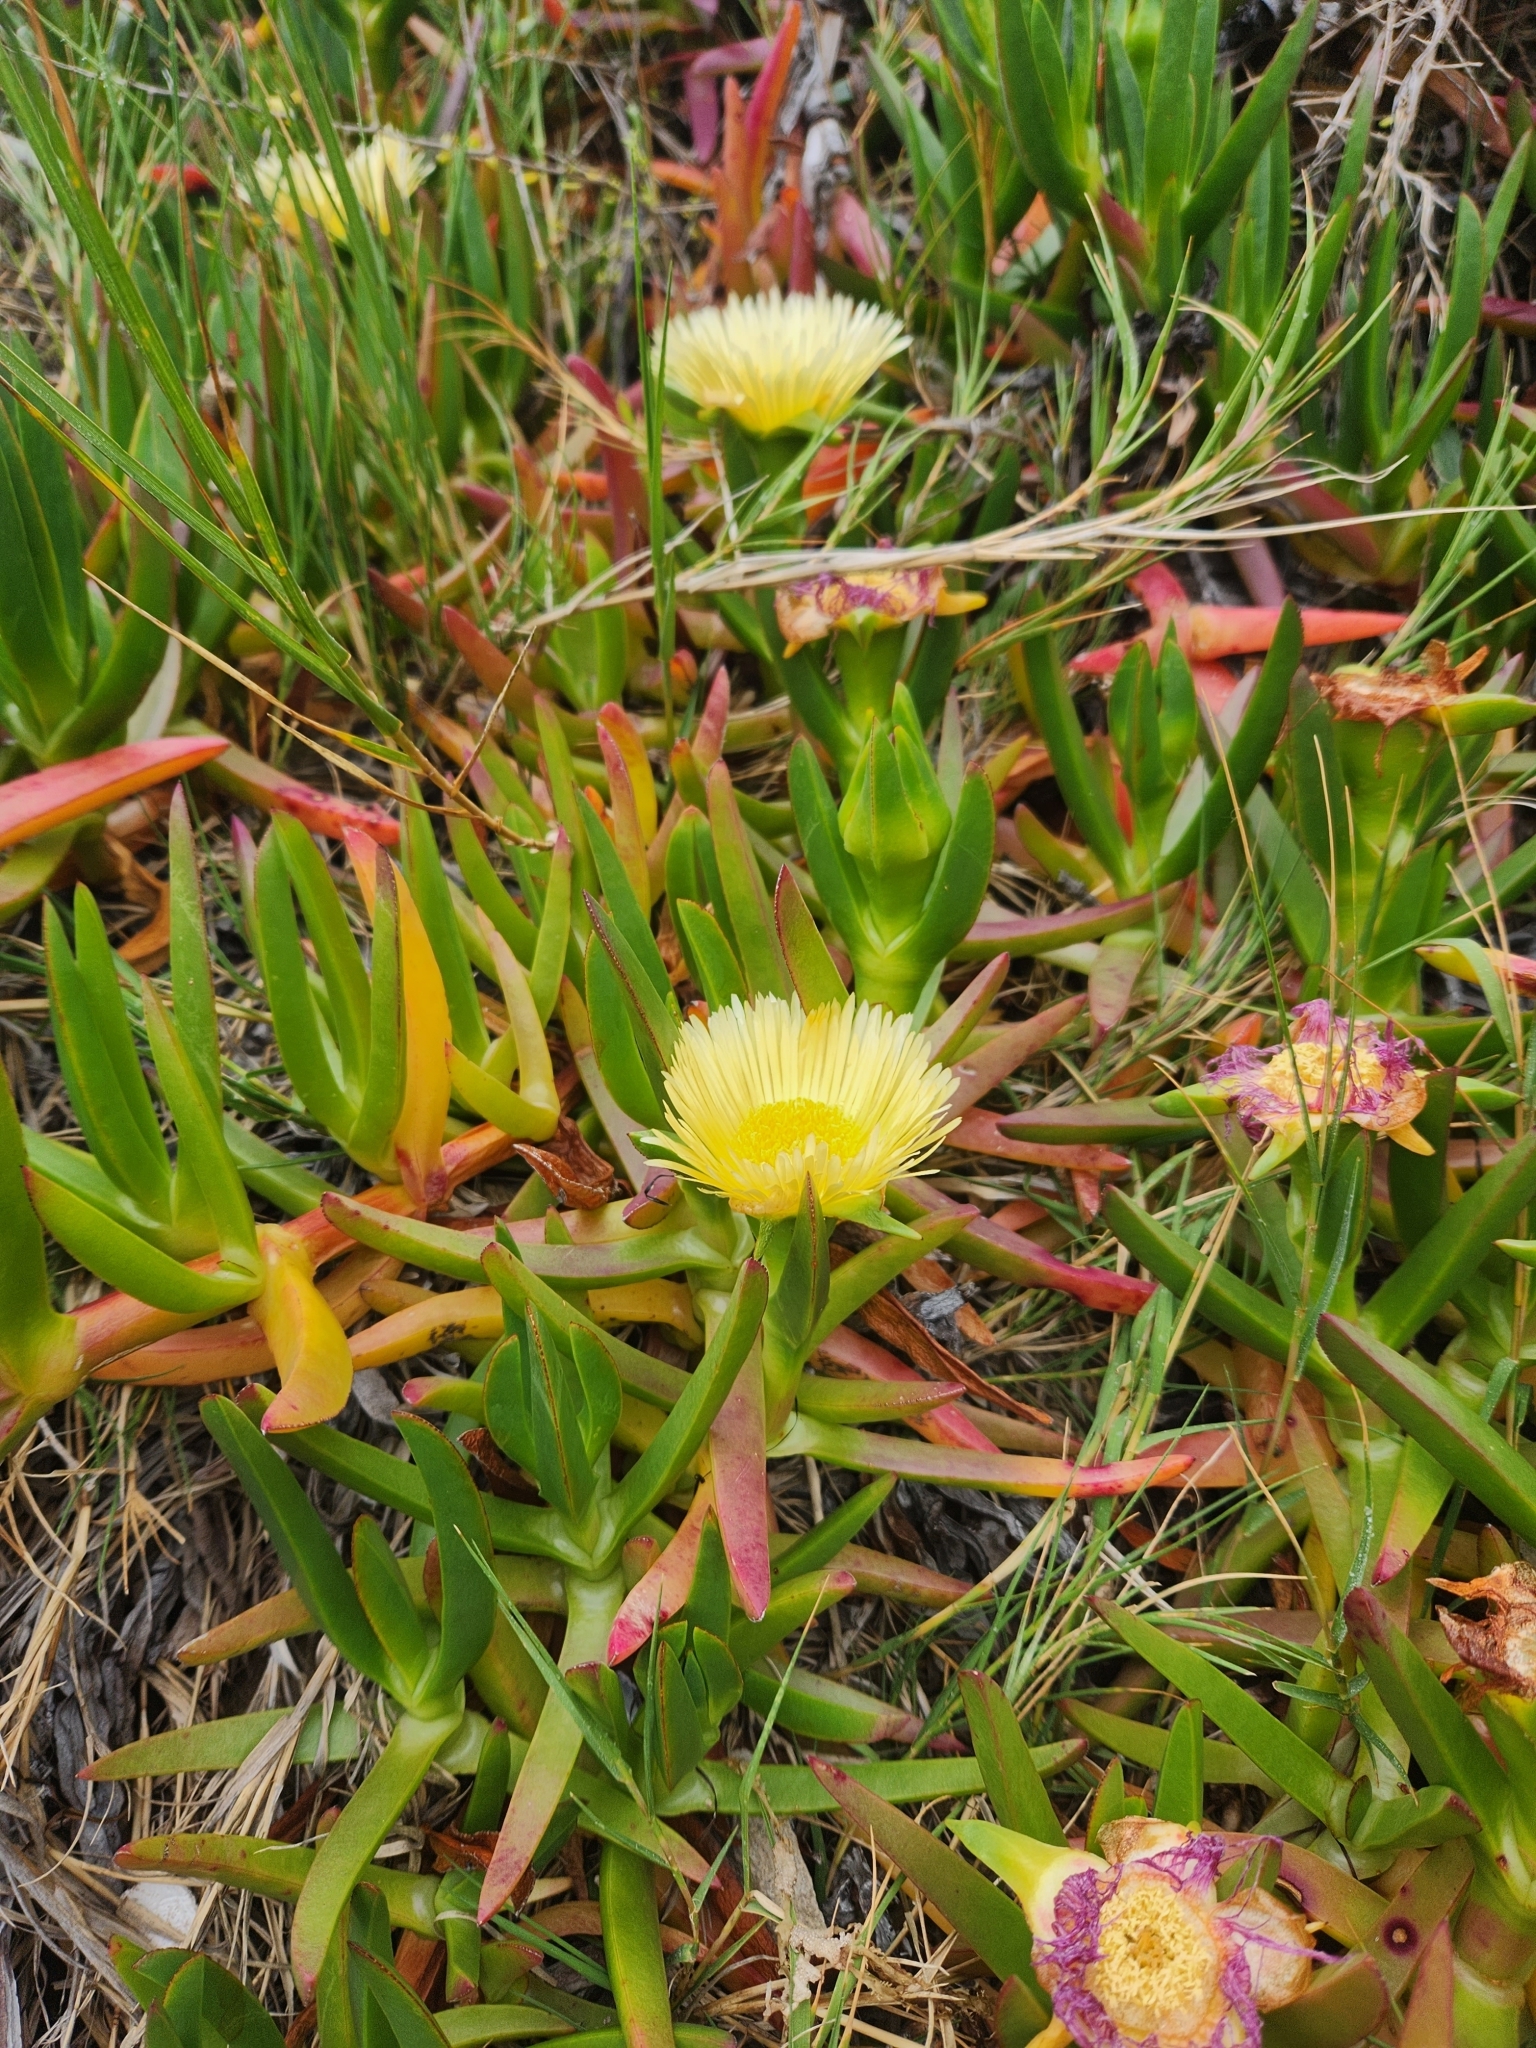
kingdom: Plantae
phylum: Tracheophyta
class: Magnoliopsida
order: Caryophyllales
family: Aizoaceae
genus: Carpobrotus
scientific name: Carpobrotus edulis
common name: Hottentot-fig
